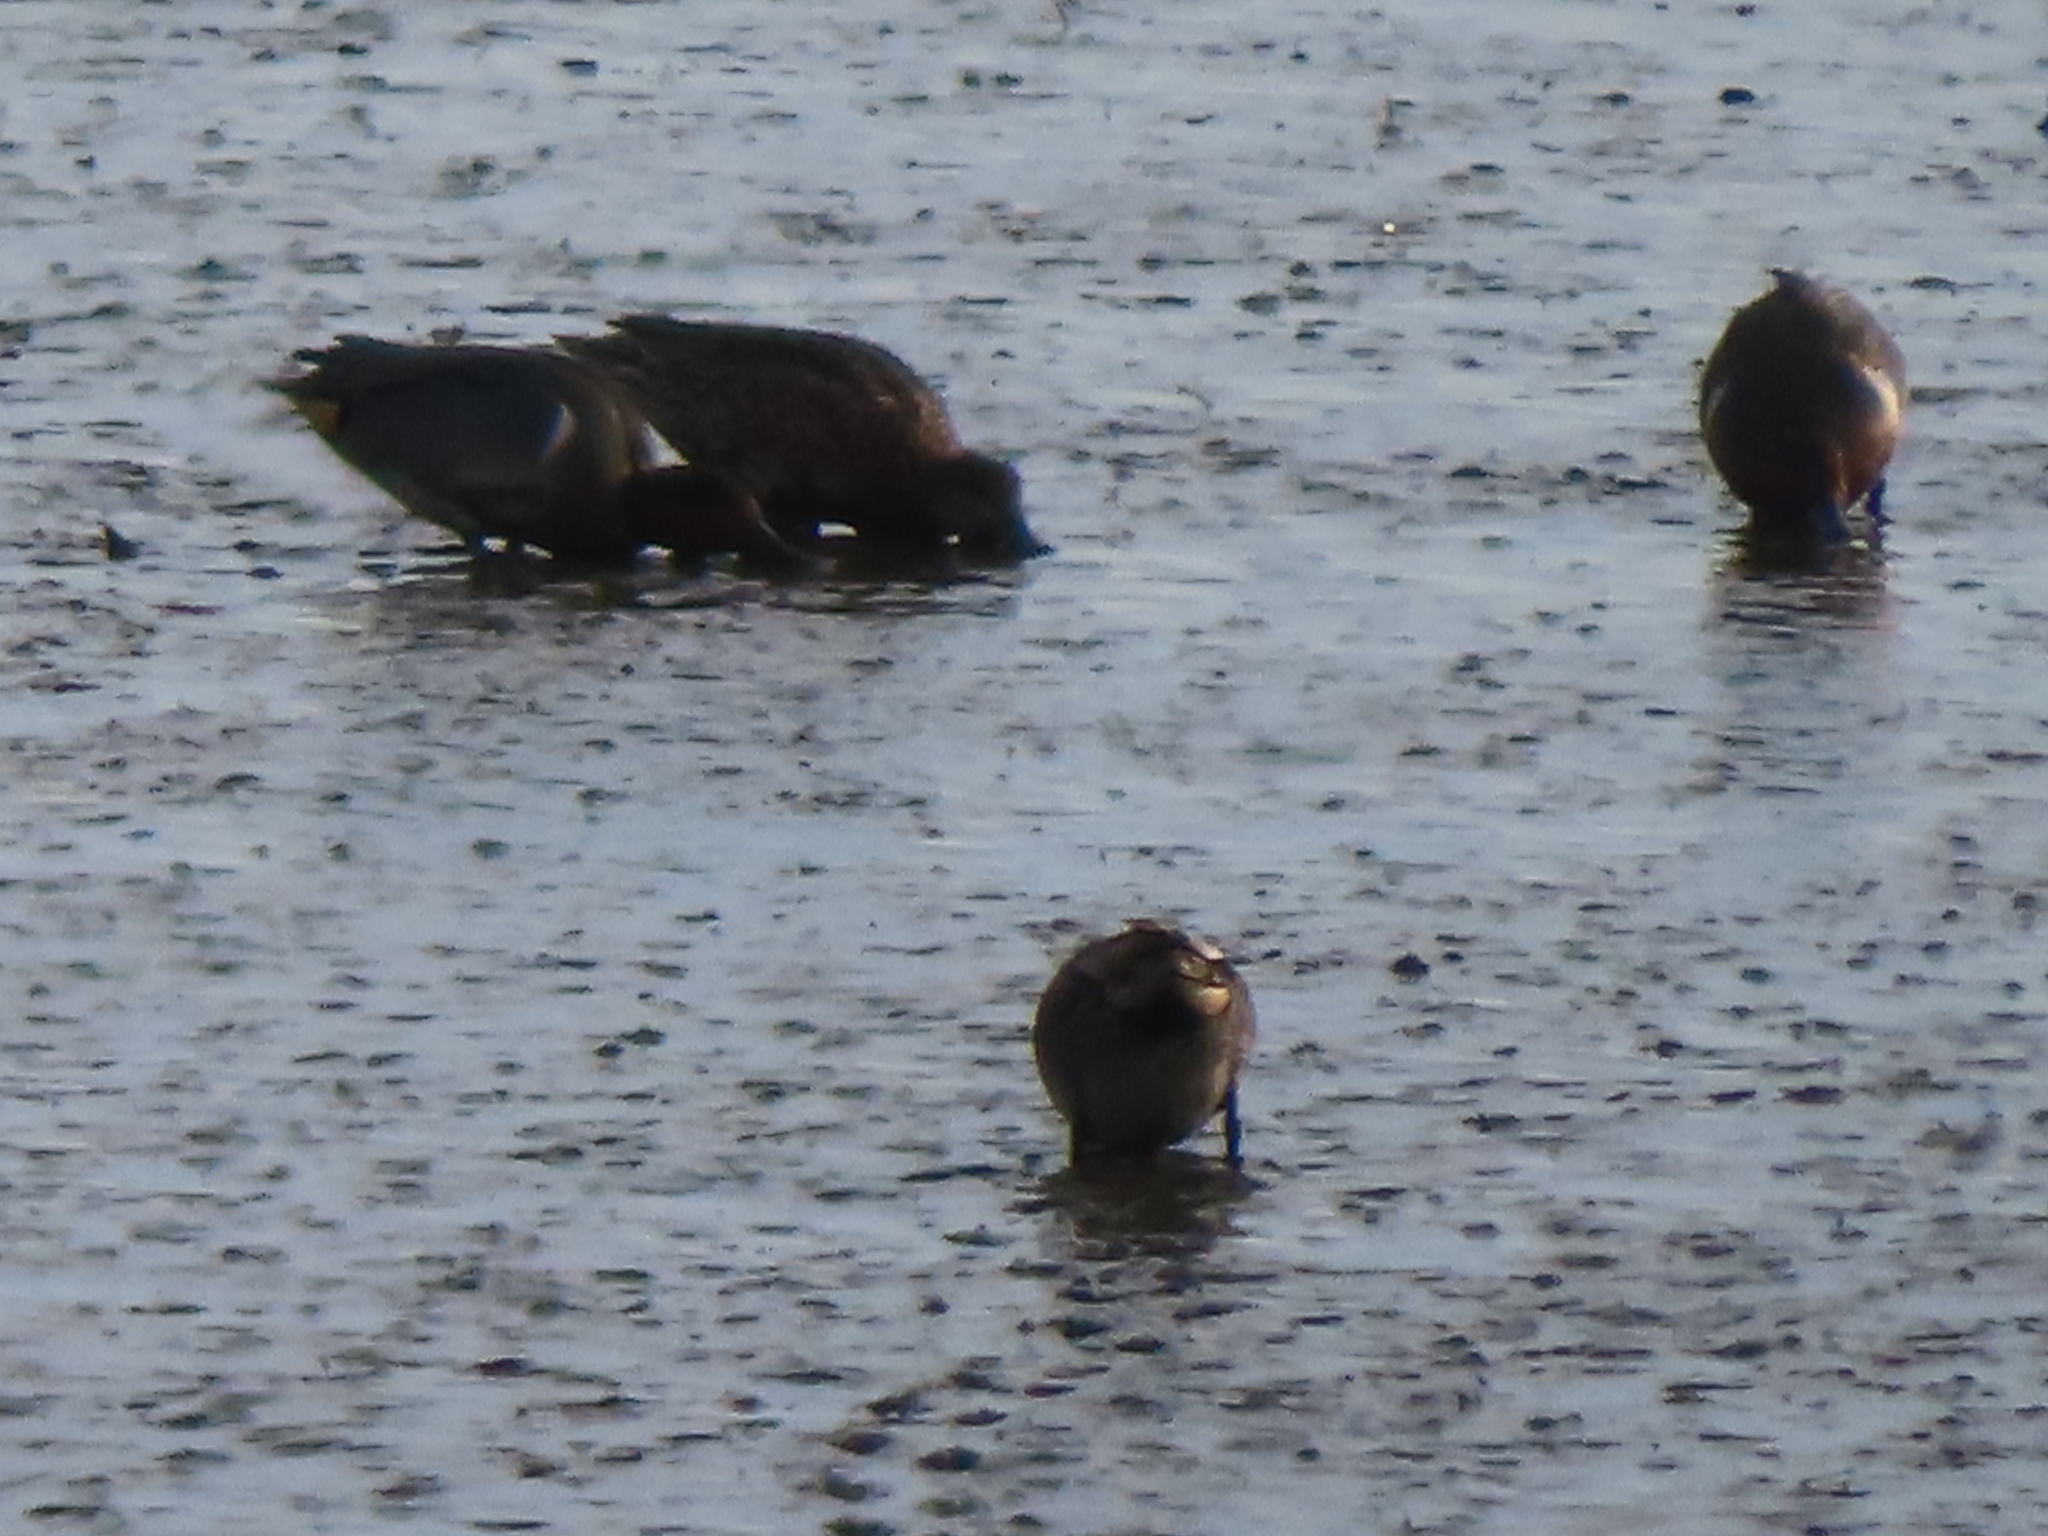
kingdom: Animalia
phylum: Chordata
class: Aves
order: Anseriformes
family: Anatidae
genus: Anas
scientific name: Anas carolinensis
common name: Green-winged teal
